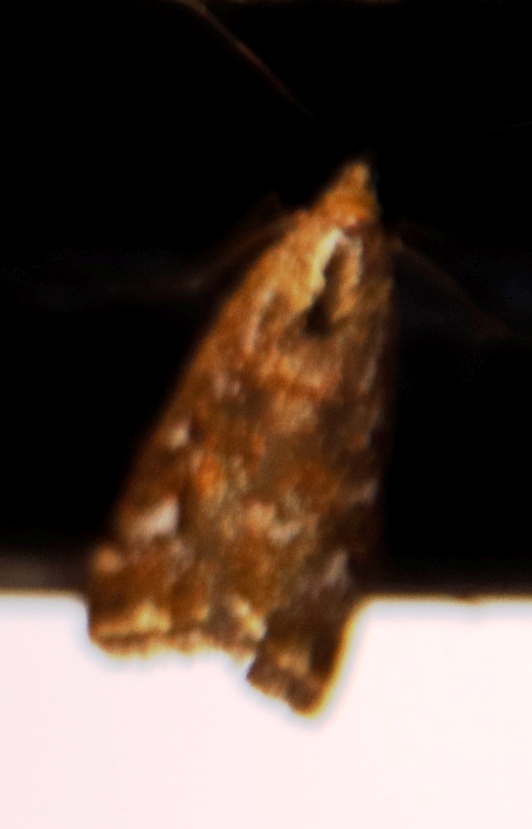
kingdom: Animalia
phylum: Arthropoda
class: Insecta
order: Lepidoptera
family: Crambidae
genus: Loxostege
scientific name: Loxostege frustalis
